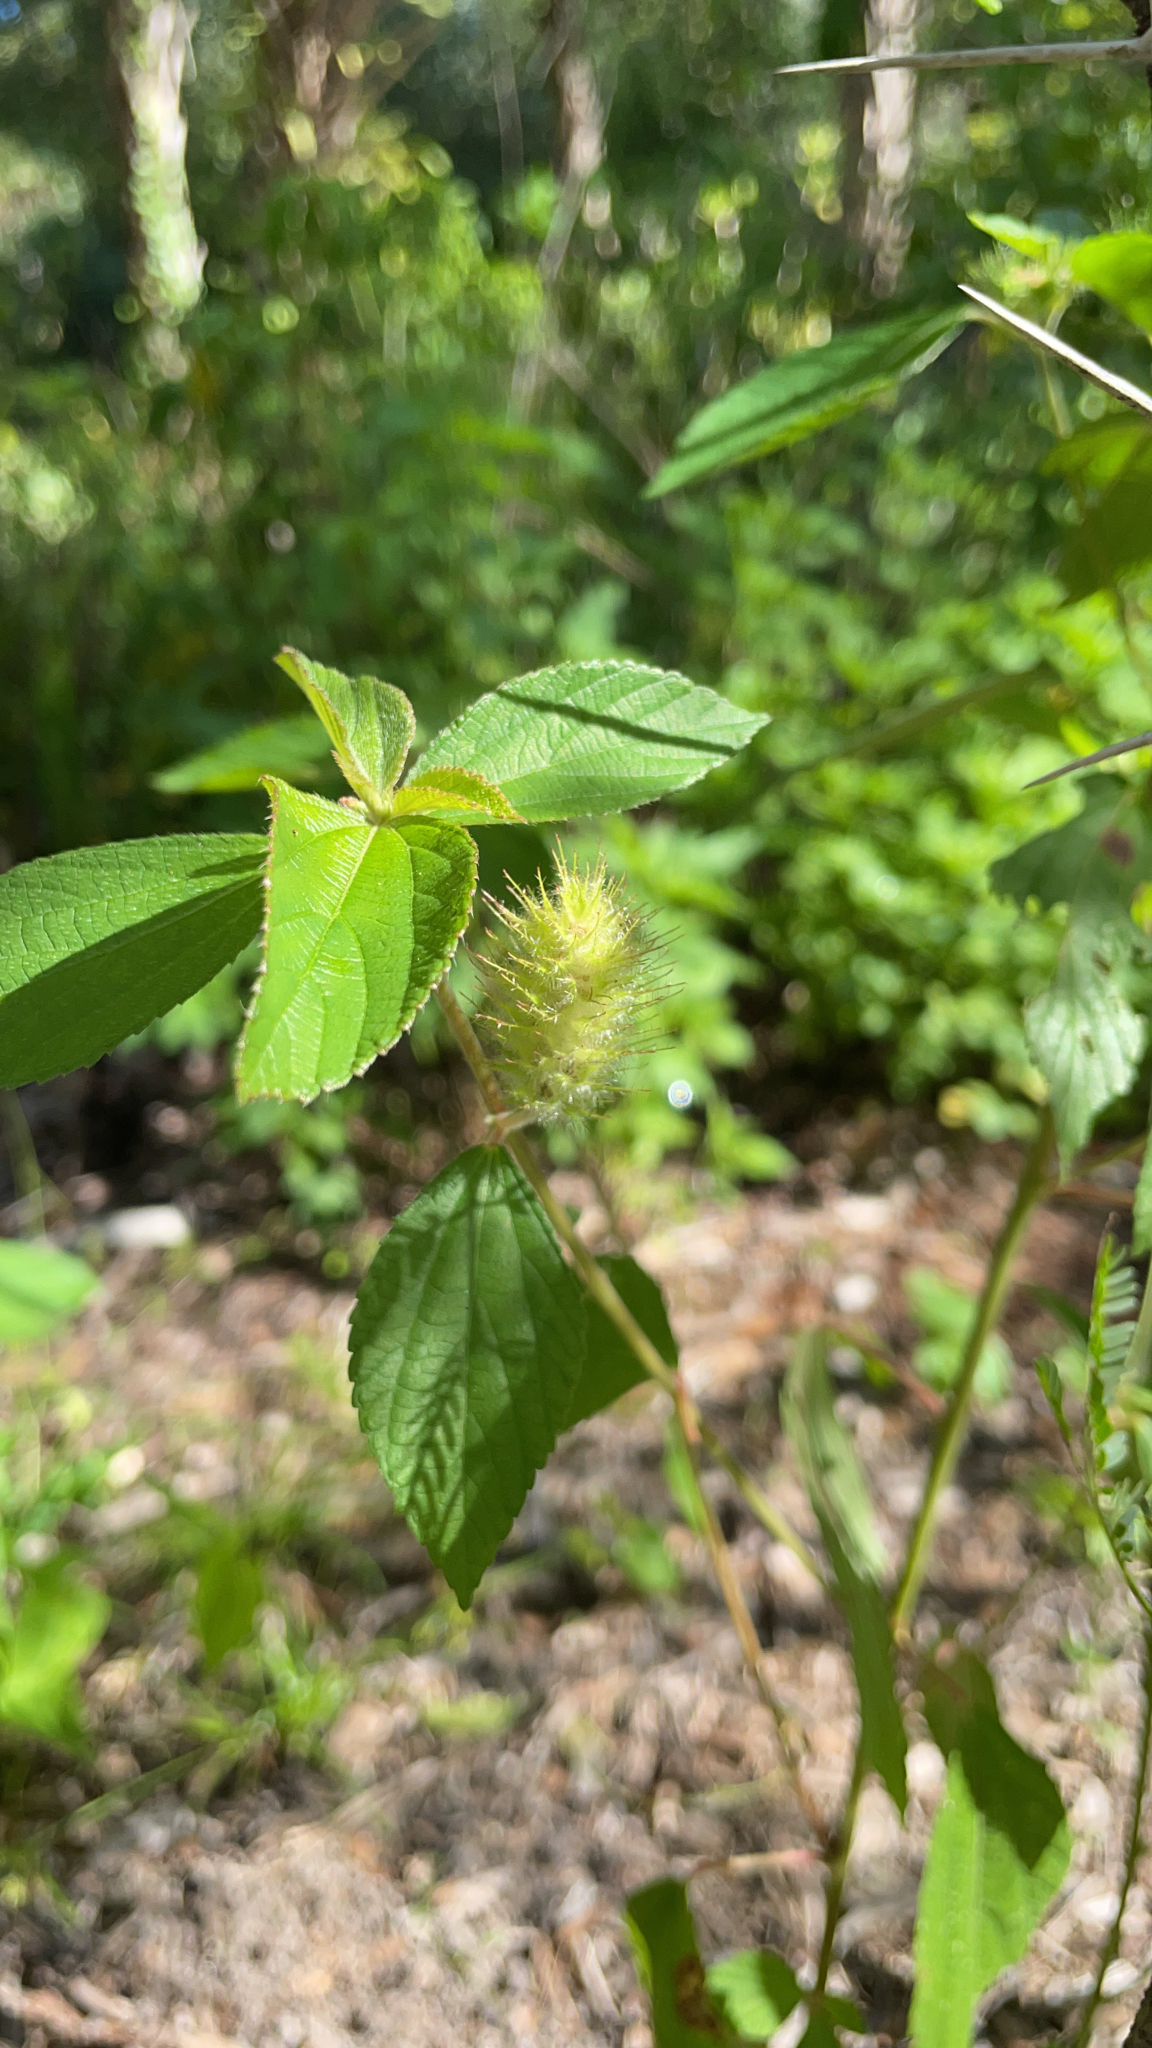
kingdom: Plantae
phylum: Tracheophyta
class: Magnoliopsida
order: Malpighiales
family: Euphorbiaceae
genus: Acalypha
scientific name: Acalypha arvensis
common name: Field copperleaf
